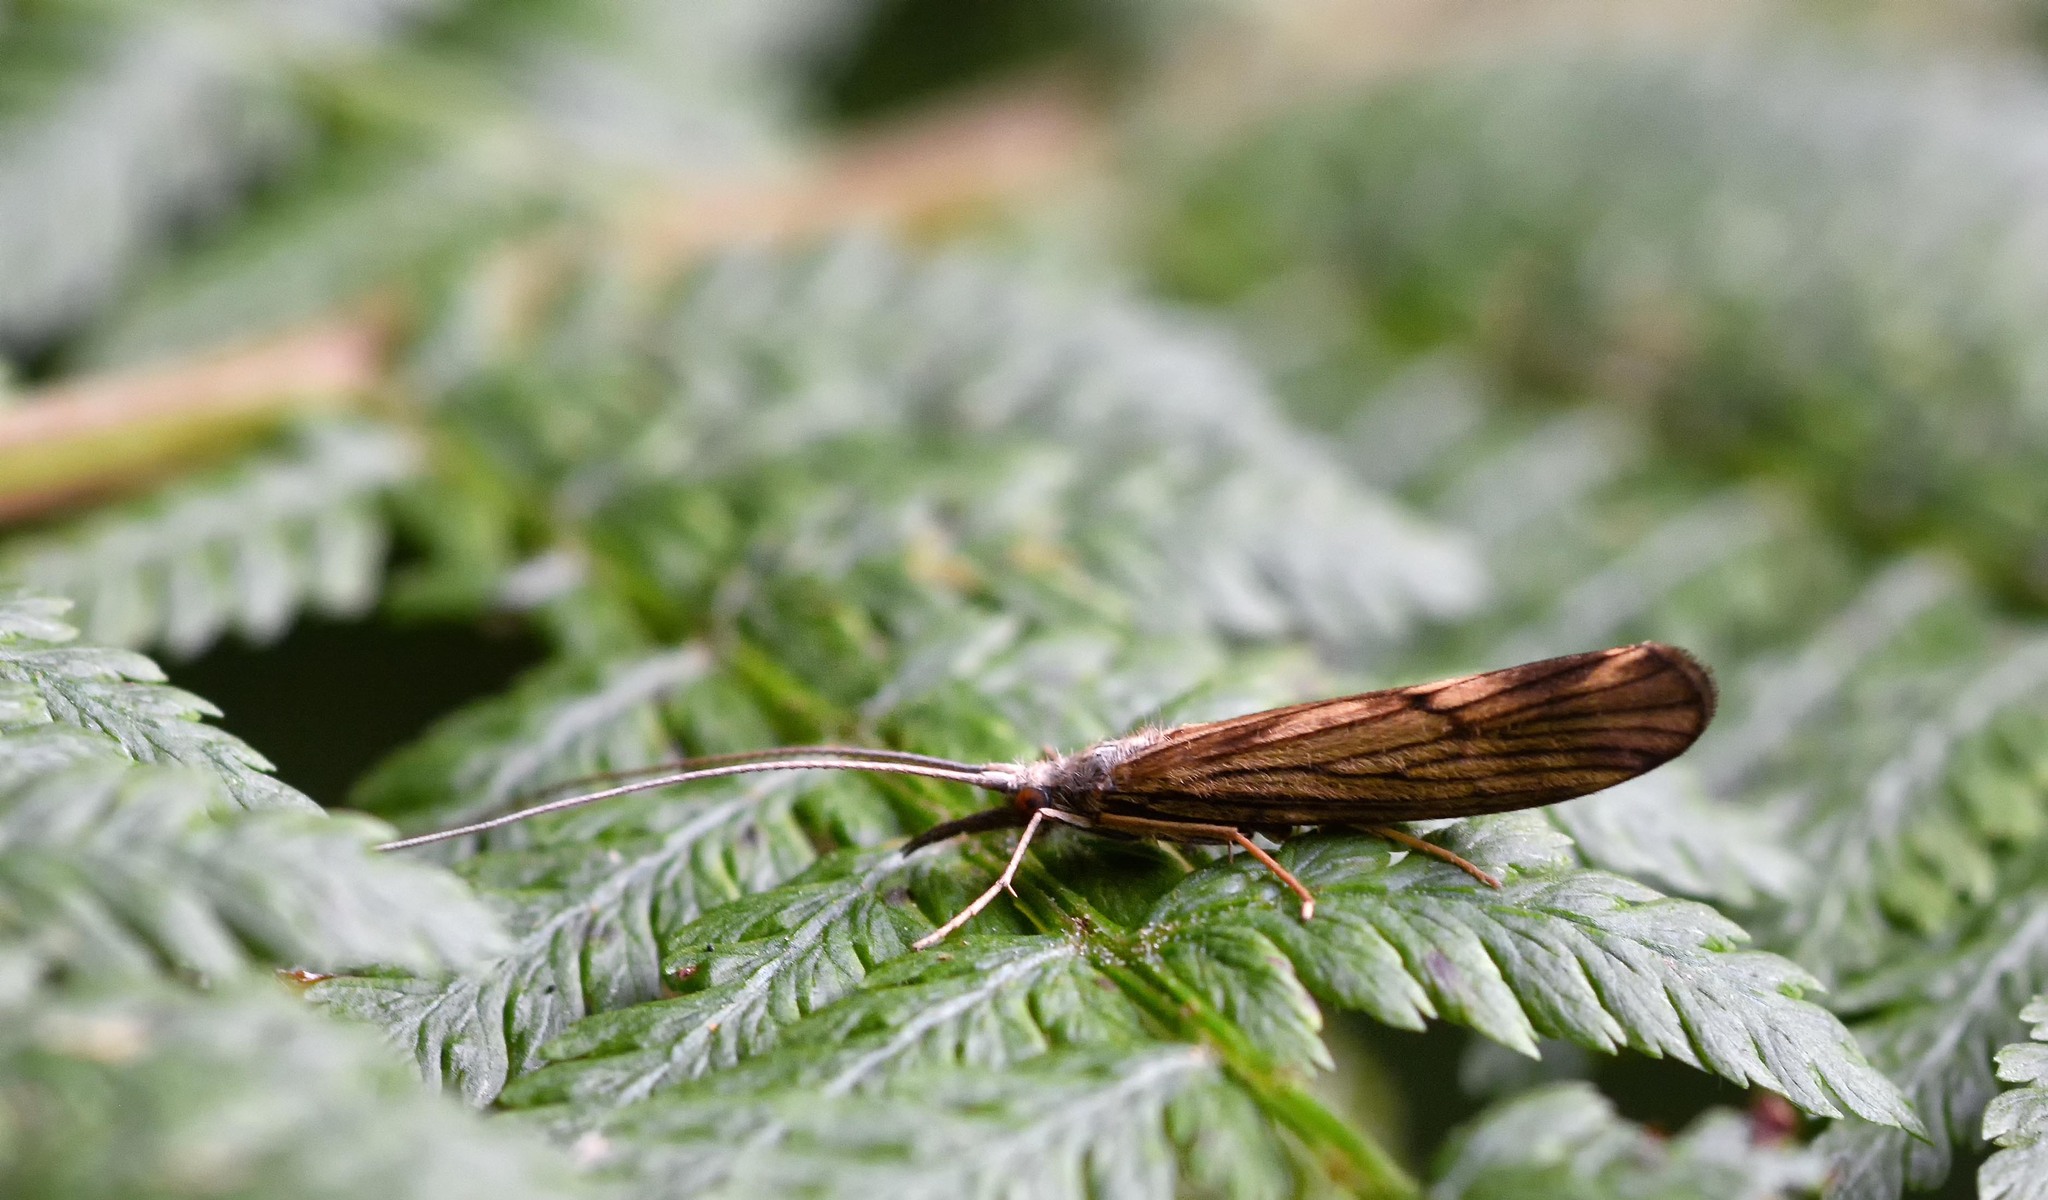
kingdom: Animalia
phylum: Arthropoda
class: Insecta
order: Trichoptera
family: Odontoceridae
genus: Odontocerum
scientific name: Odontocerum albicorne
